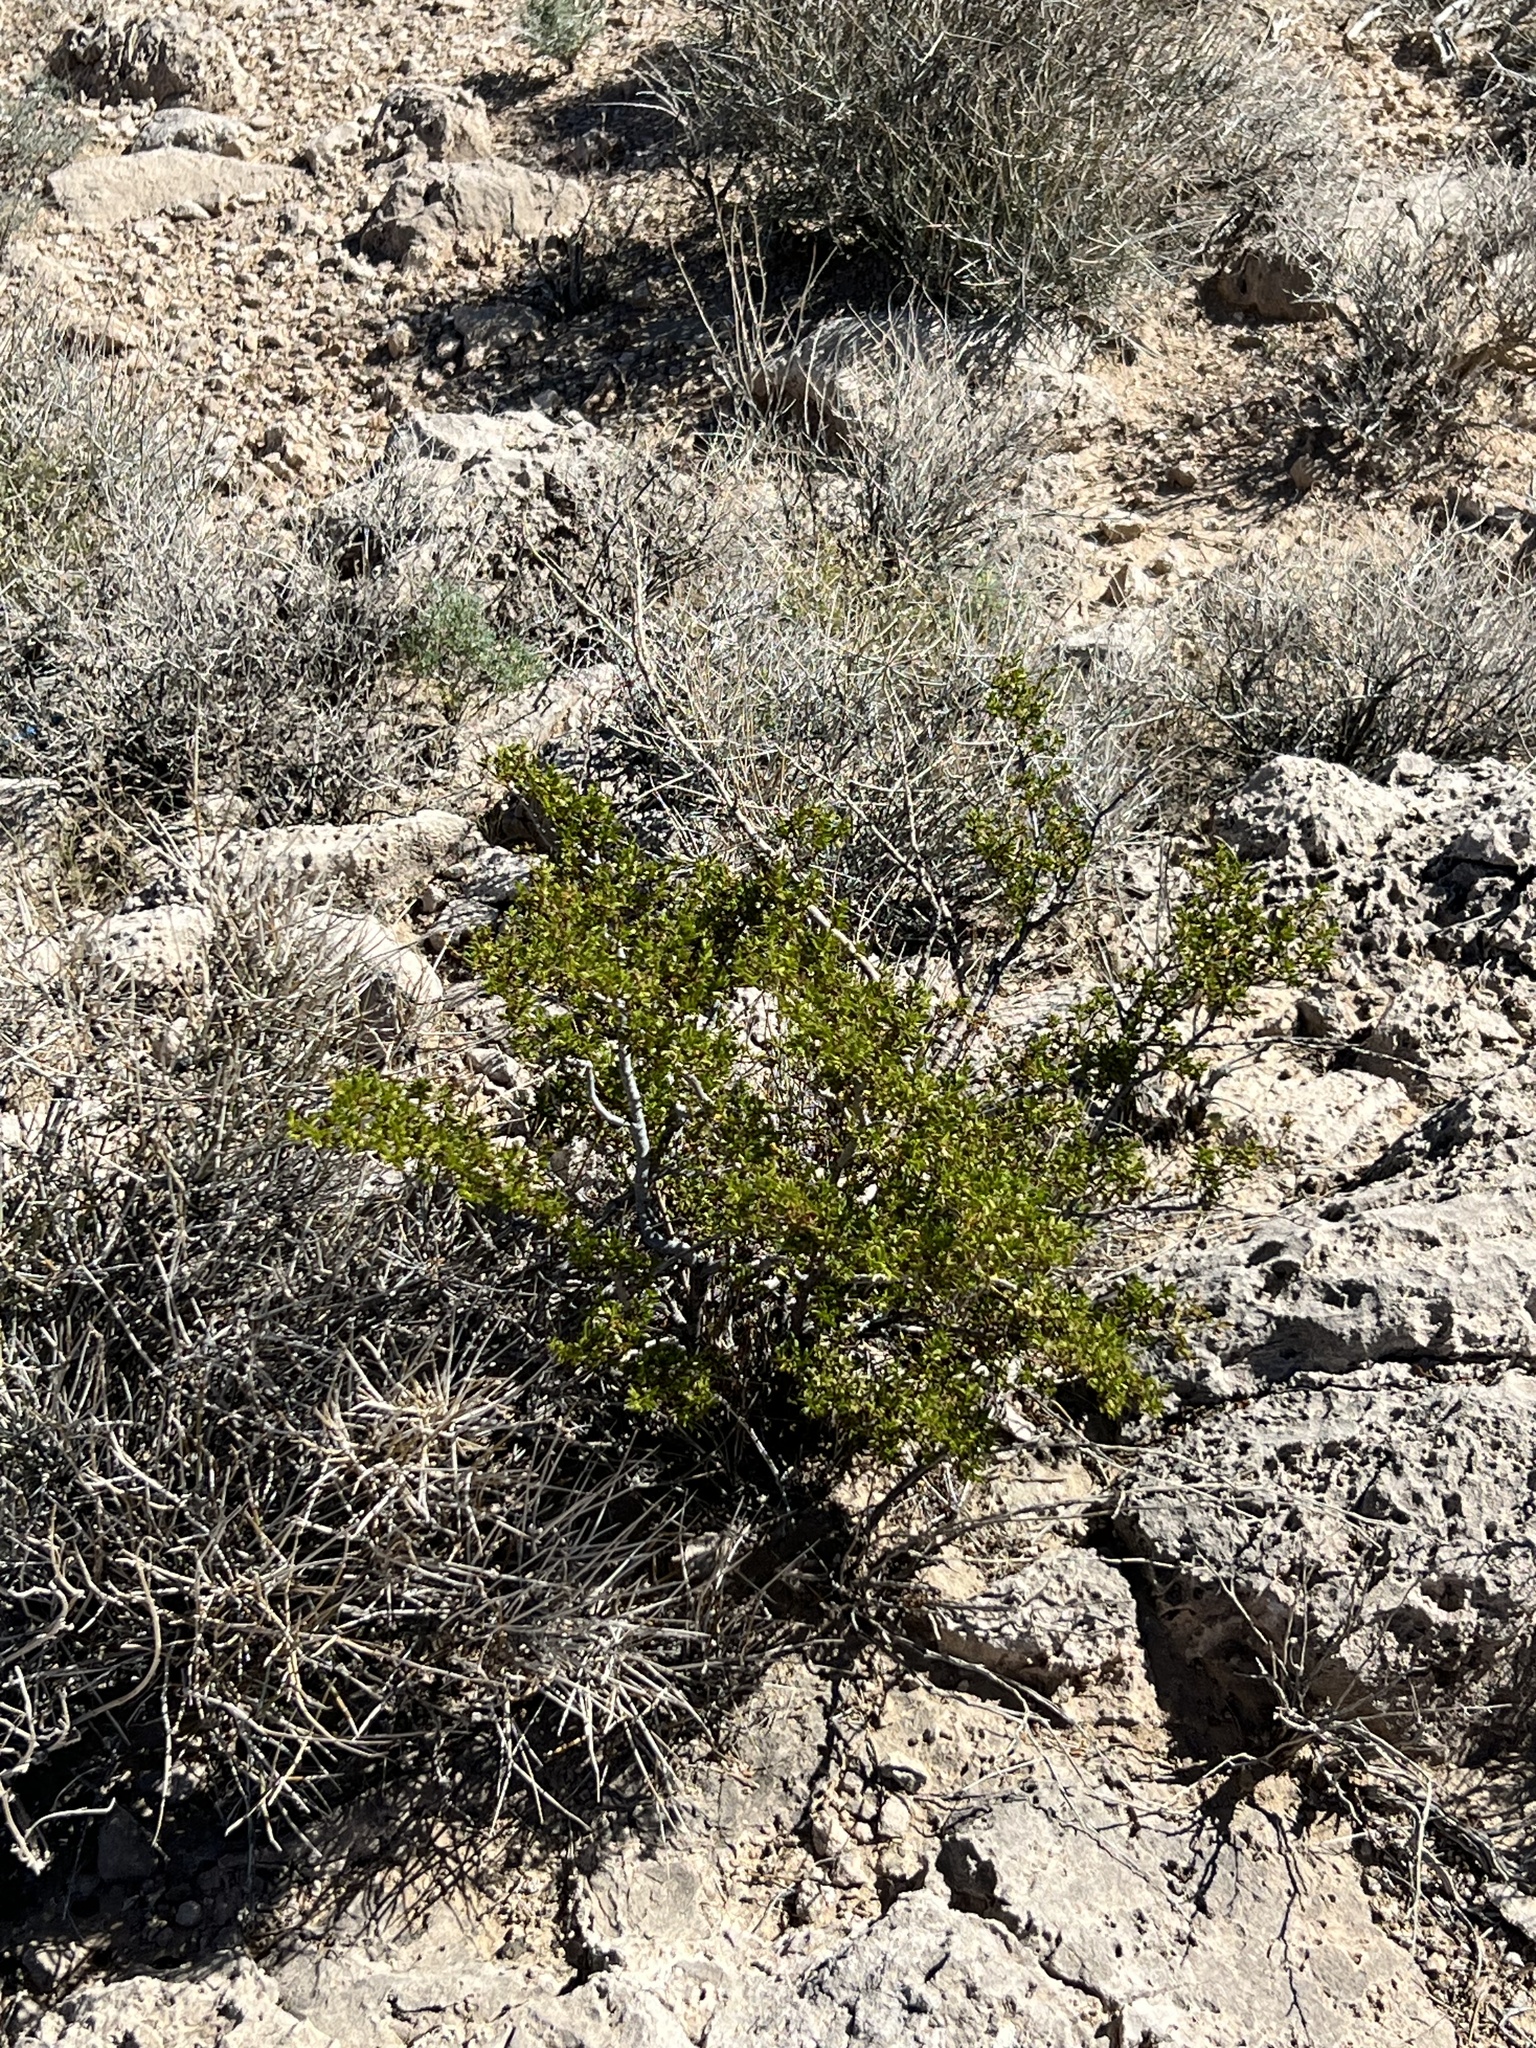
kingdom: Plantae
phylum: Tracheophyta
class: Magnoliopsida
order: Zygophyllales
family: Zygophyllaceae
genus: Larrea
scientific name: Larrea tridentata
